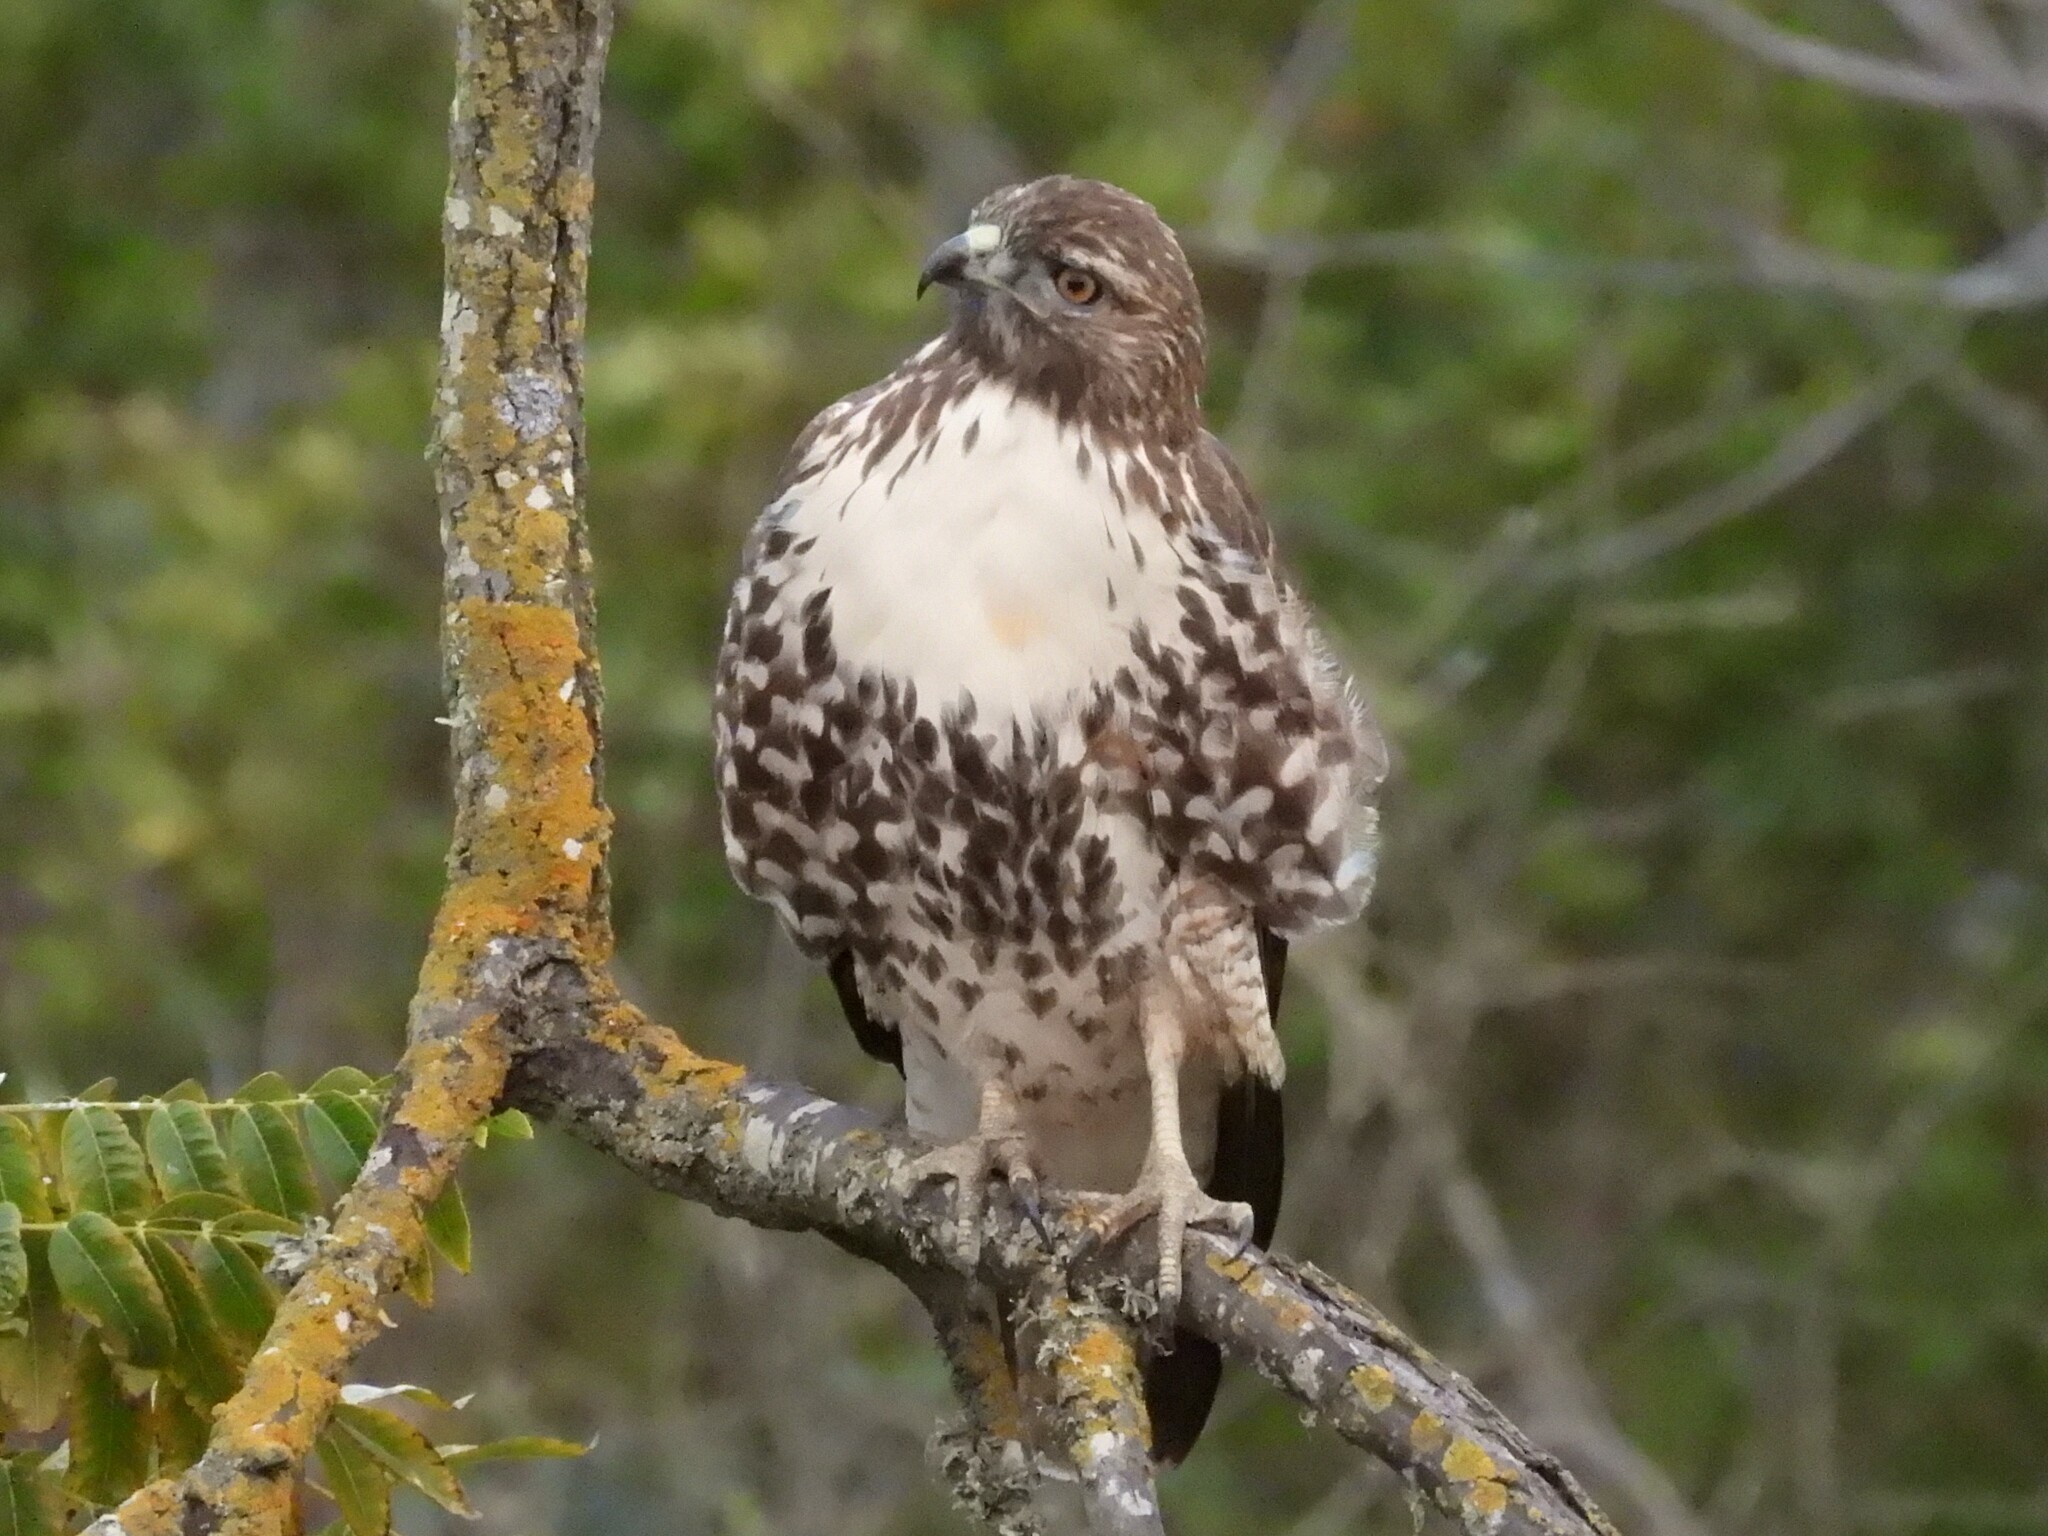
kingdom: Animalia
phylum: Chordata
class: Aves
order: Accipitriformes
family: Accipitridae
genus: Buteo
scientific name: Buteo jamaicensis
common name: Red-tailed hawk
